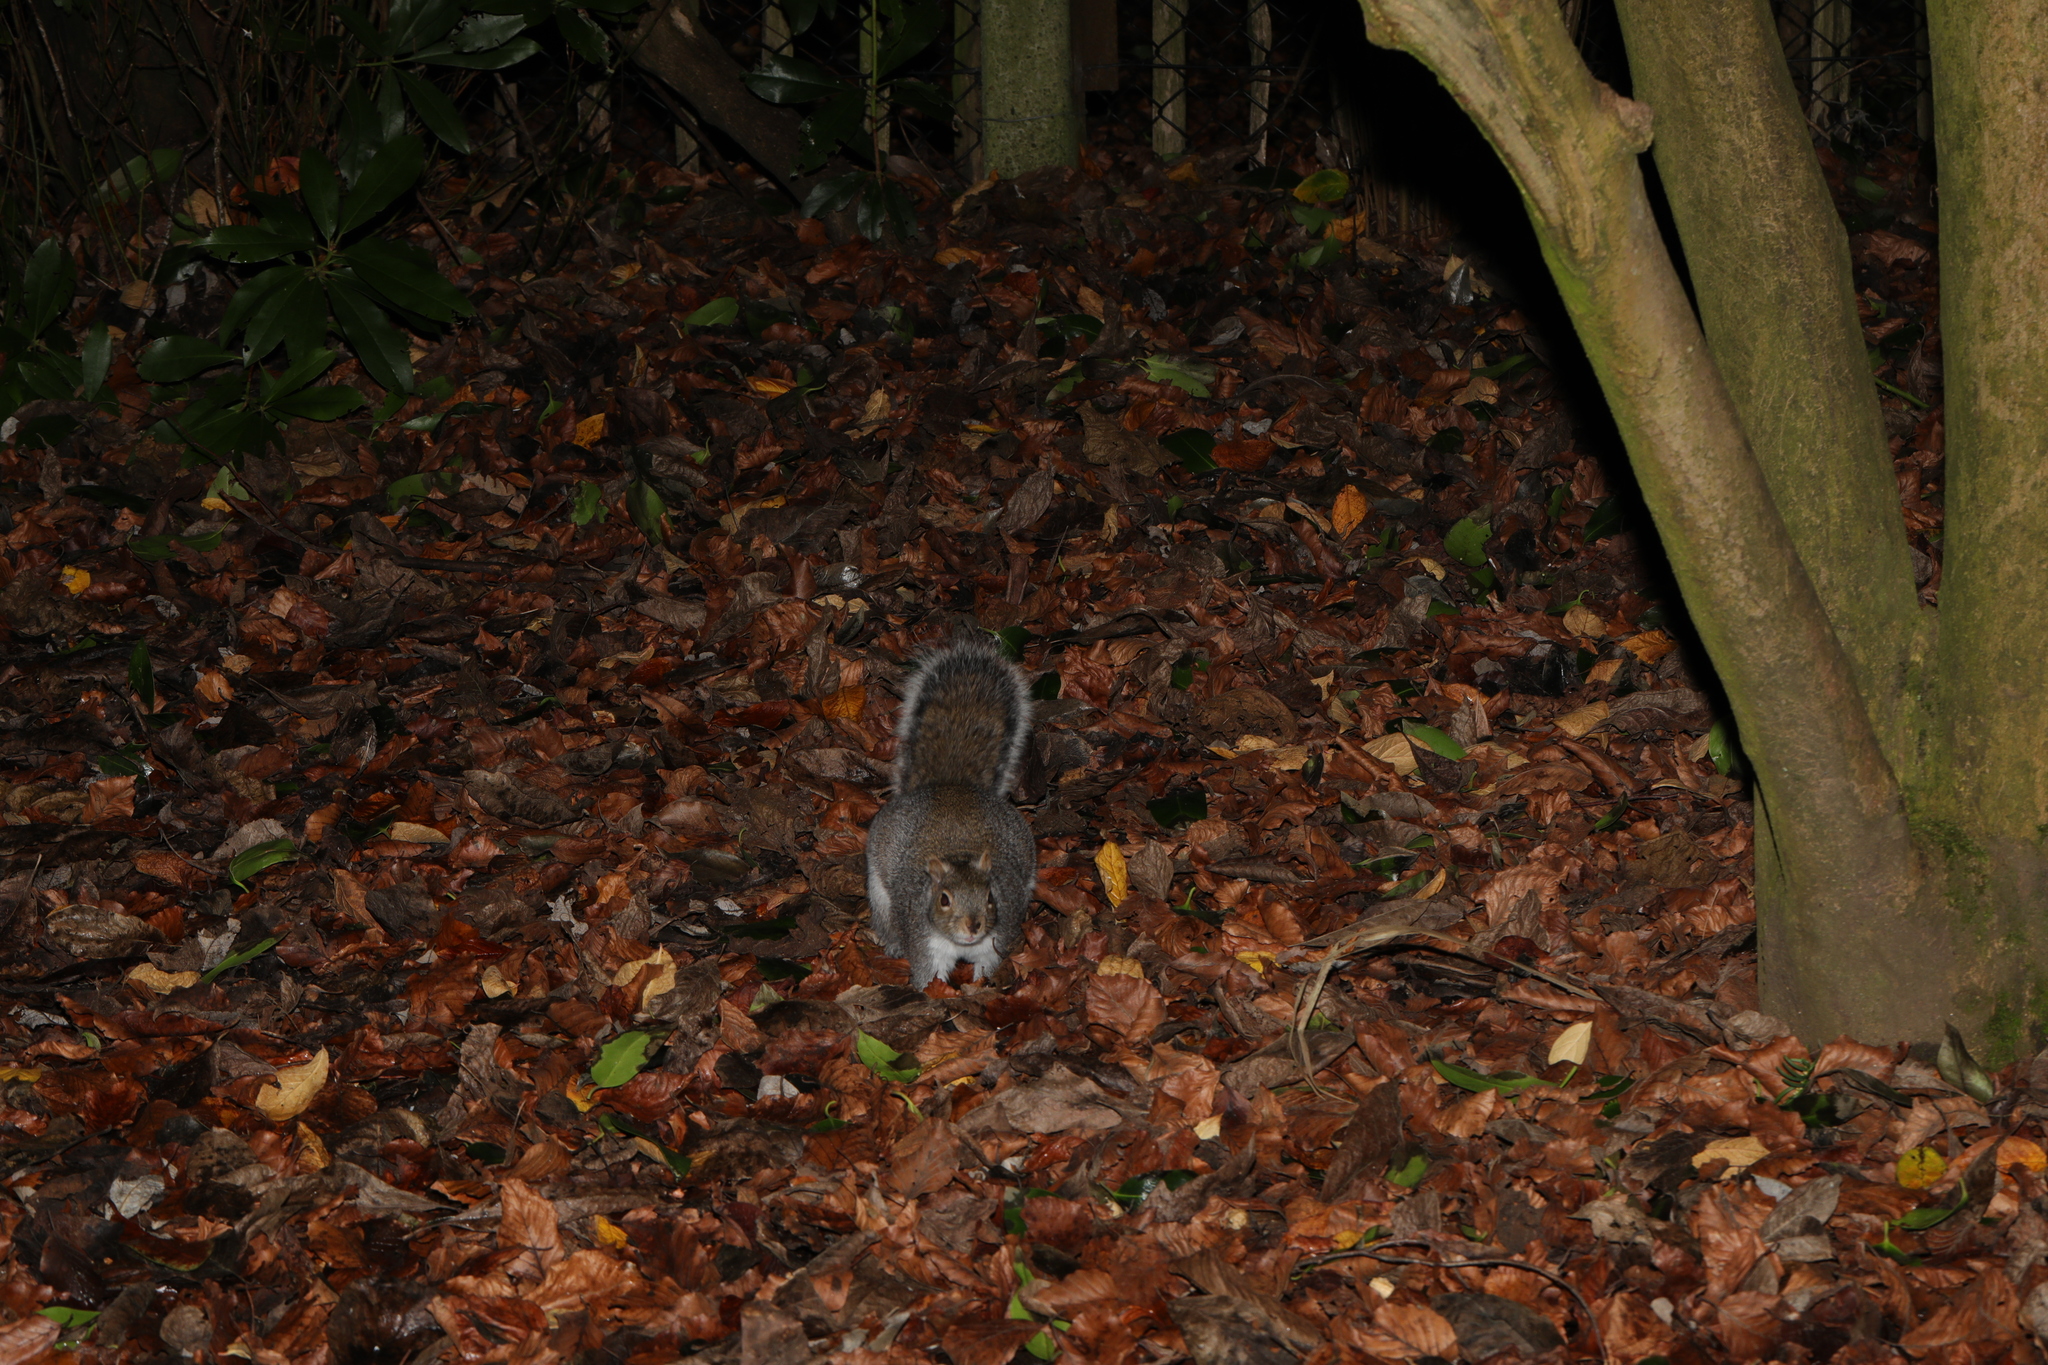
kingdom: Animalia
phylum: Chordata
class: Mammalia
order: Rodentia
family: Sciuridae
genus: Sciurus
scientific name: Sciurus carolinensis
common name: Eastern gray squirrel
